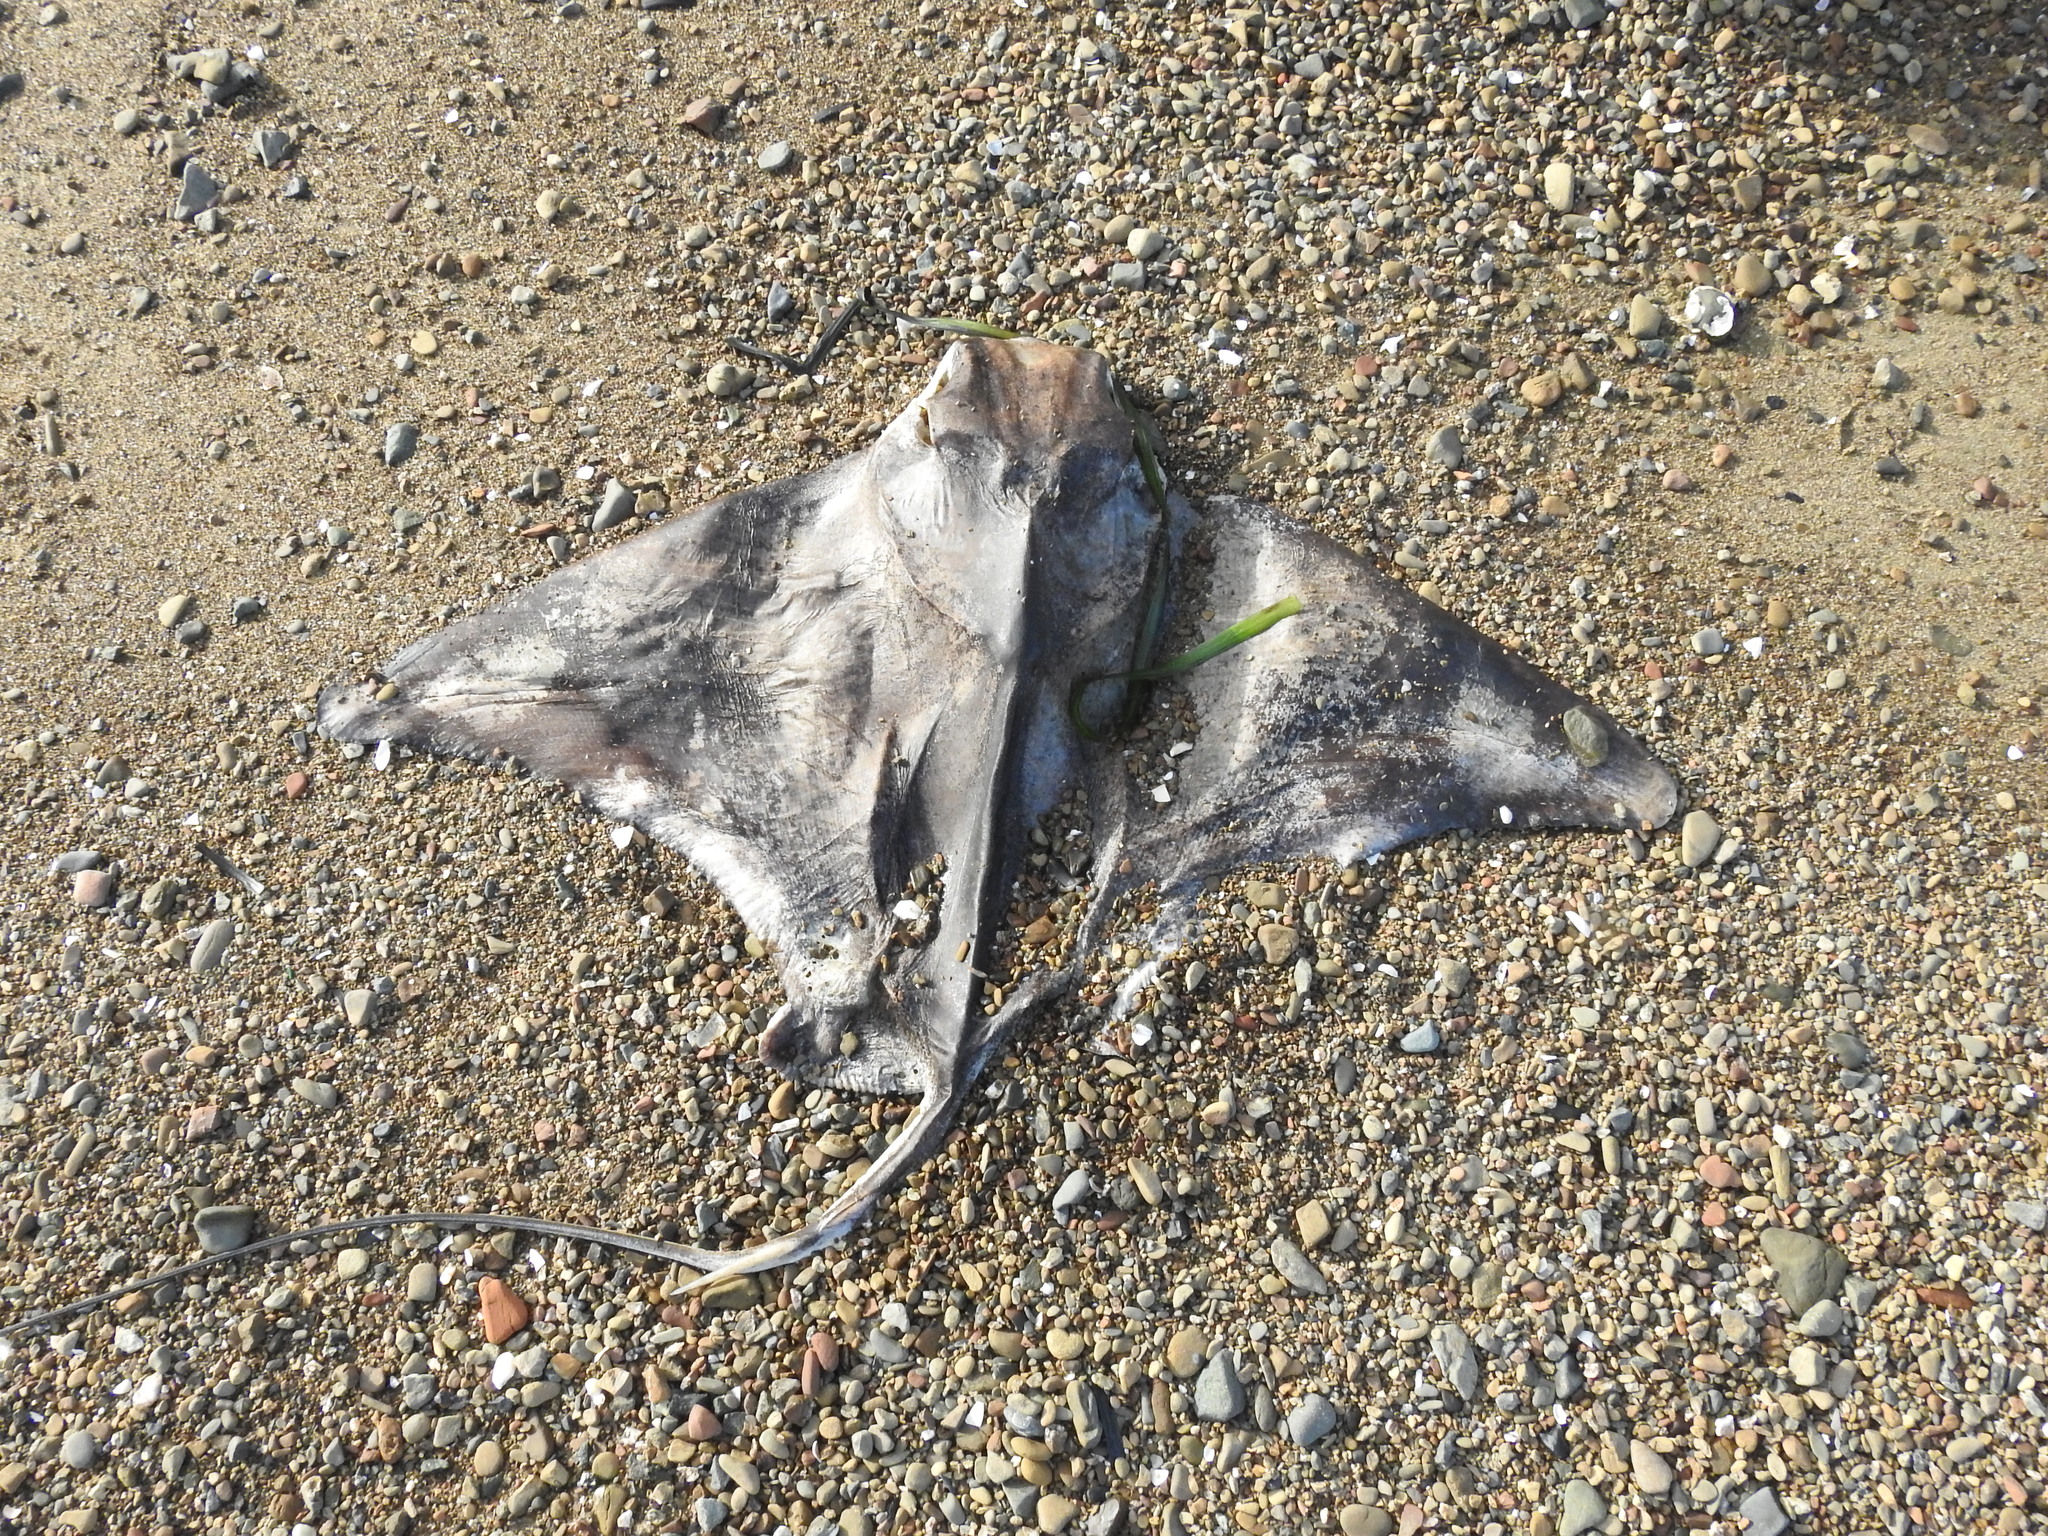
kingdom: Animalia
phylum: Chordata
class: Elasmobranchii
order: Myliobatiformes
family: Myliobatidae
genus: Myliobatis
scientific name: Myliobatis californica
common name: Bat ray
